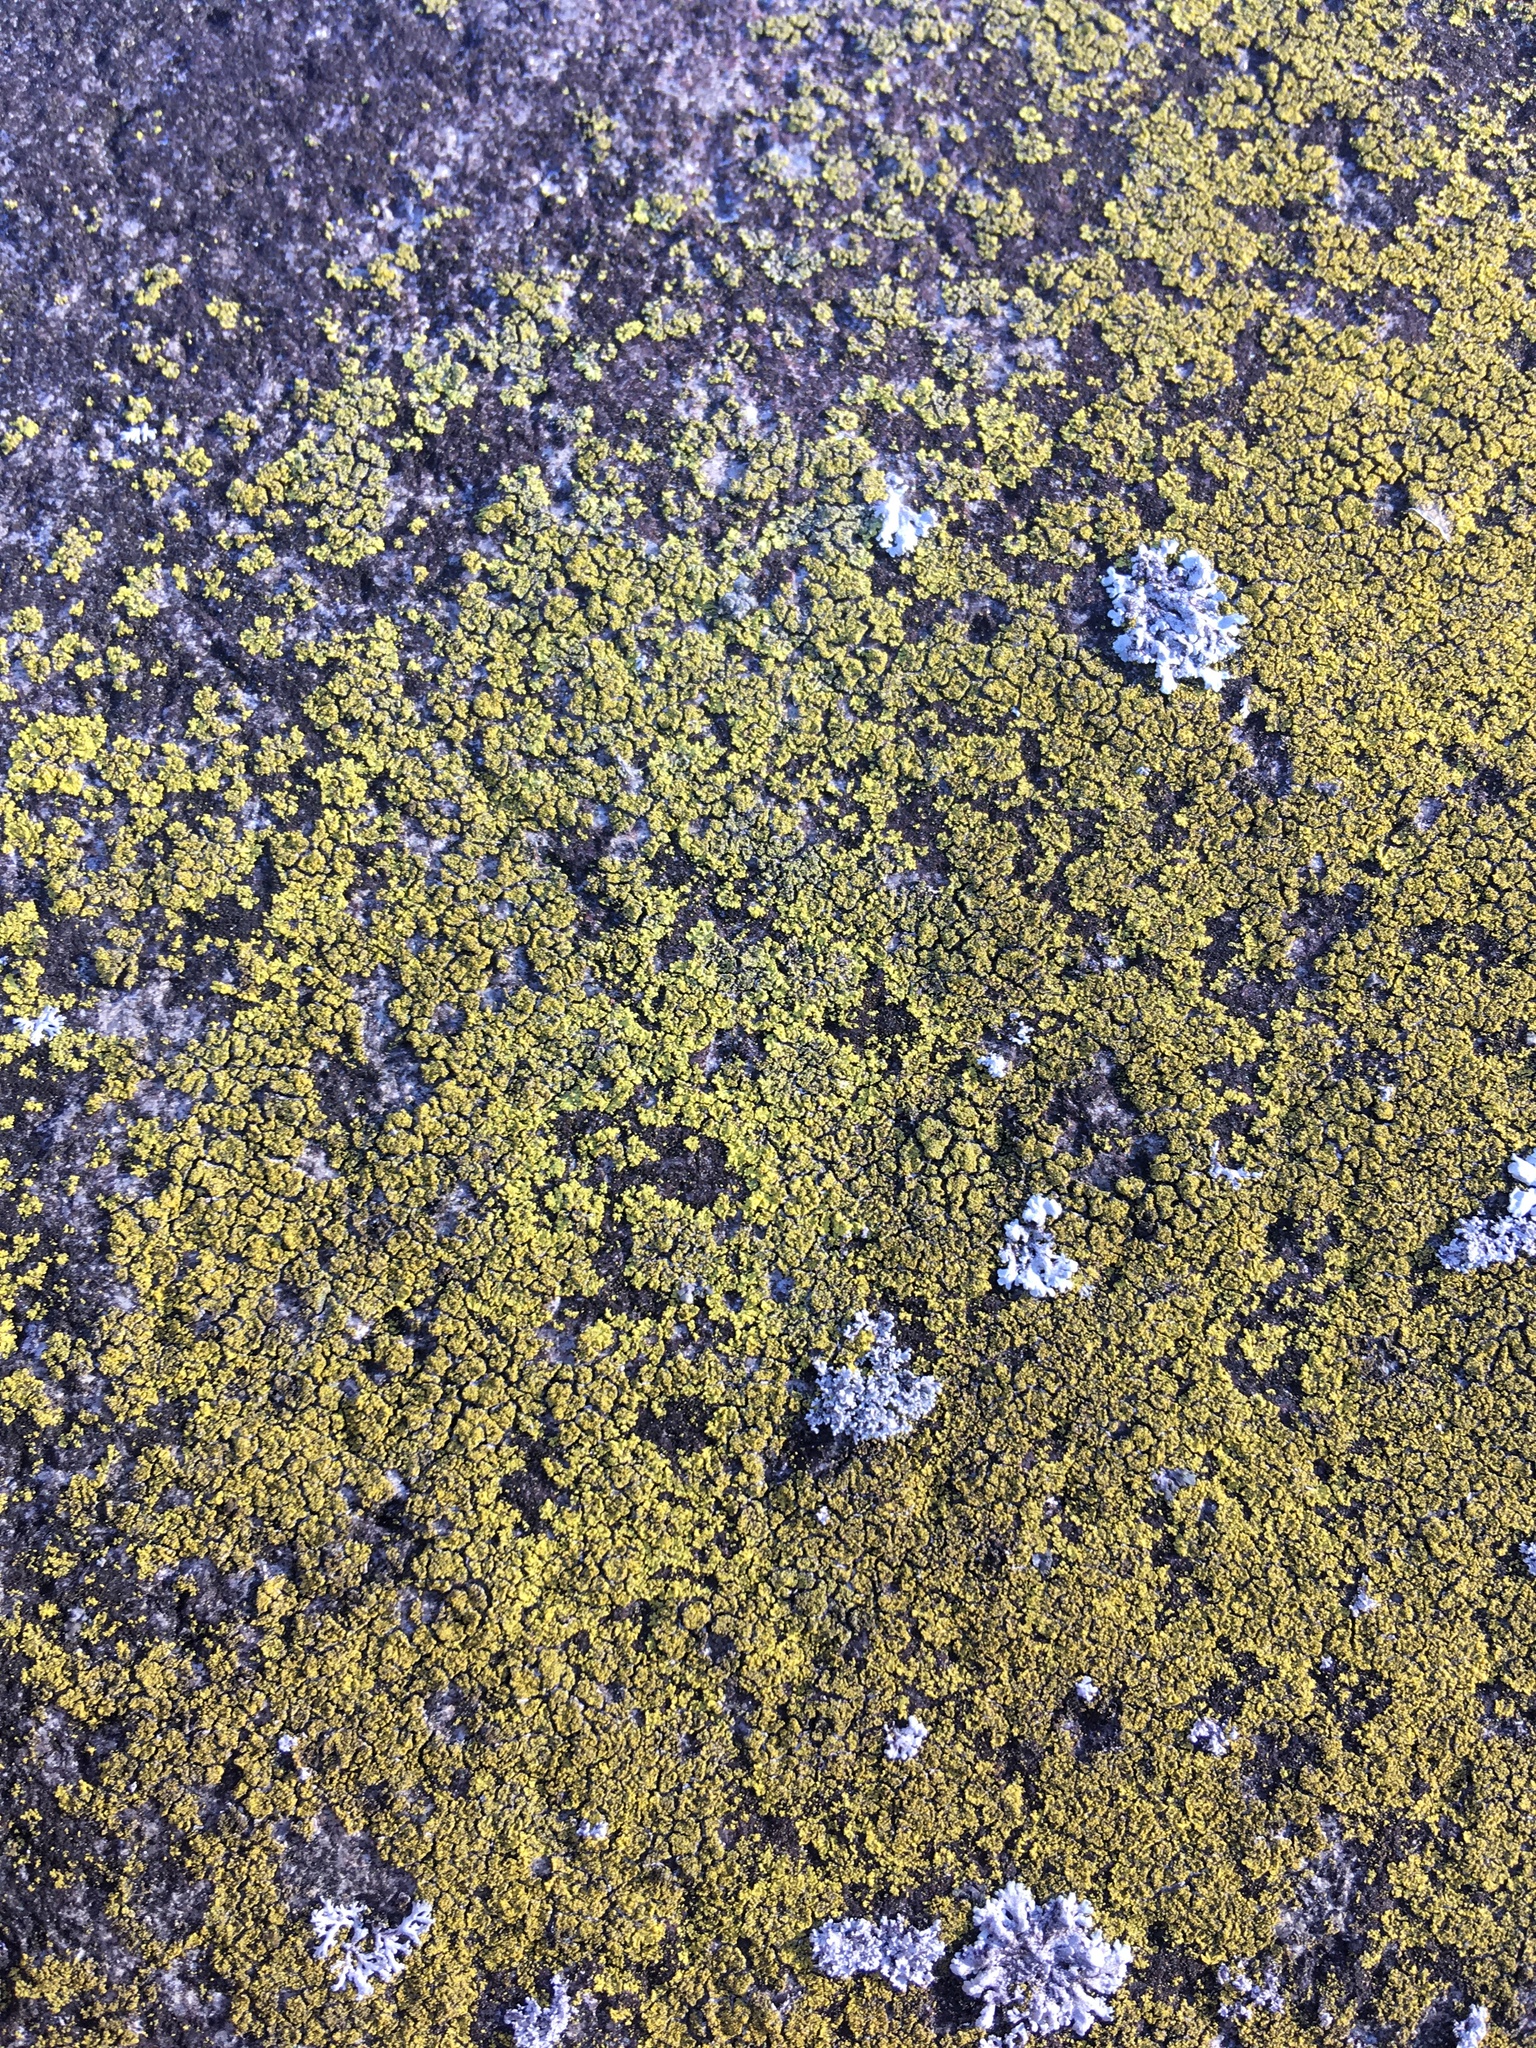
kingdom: Fungi
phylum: Ascomycota
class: Candelariomycetes
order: Candelariales
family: Candelariaceae
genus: Candelaria
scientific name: Candelaria concolor
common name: Candleflame lichen
